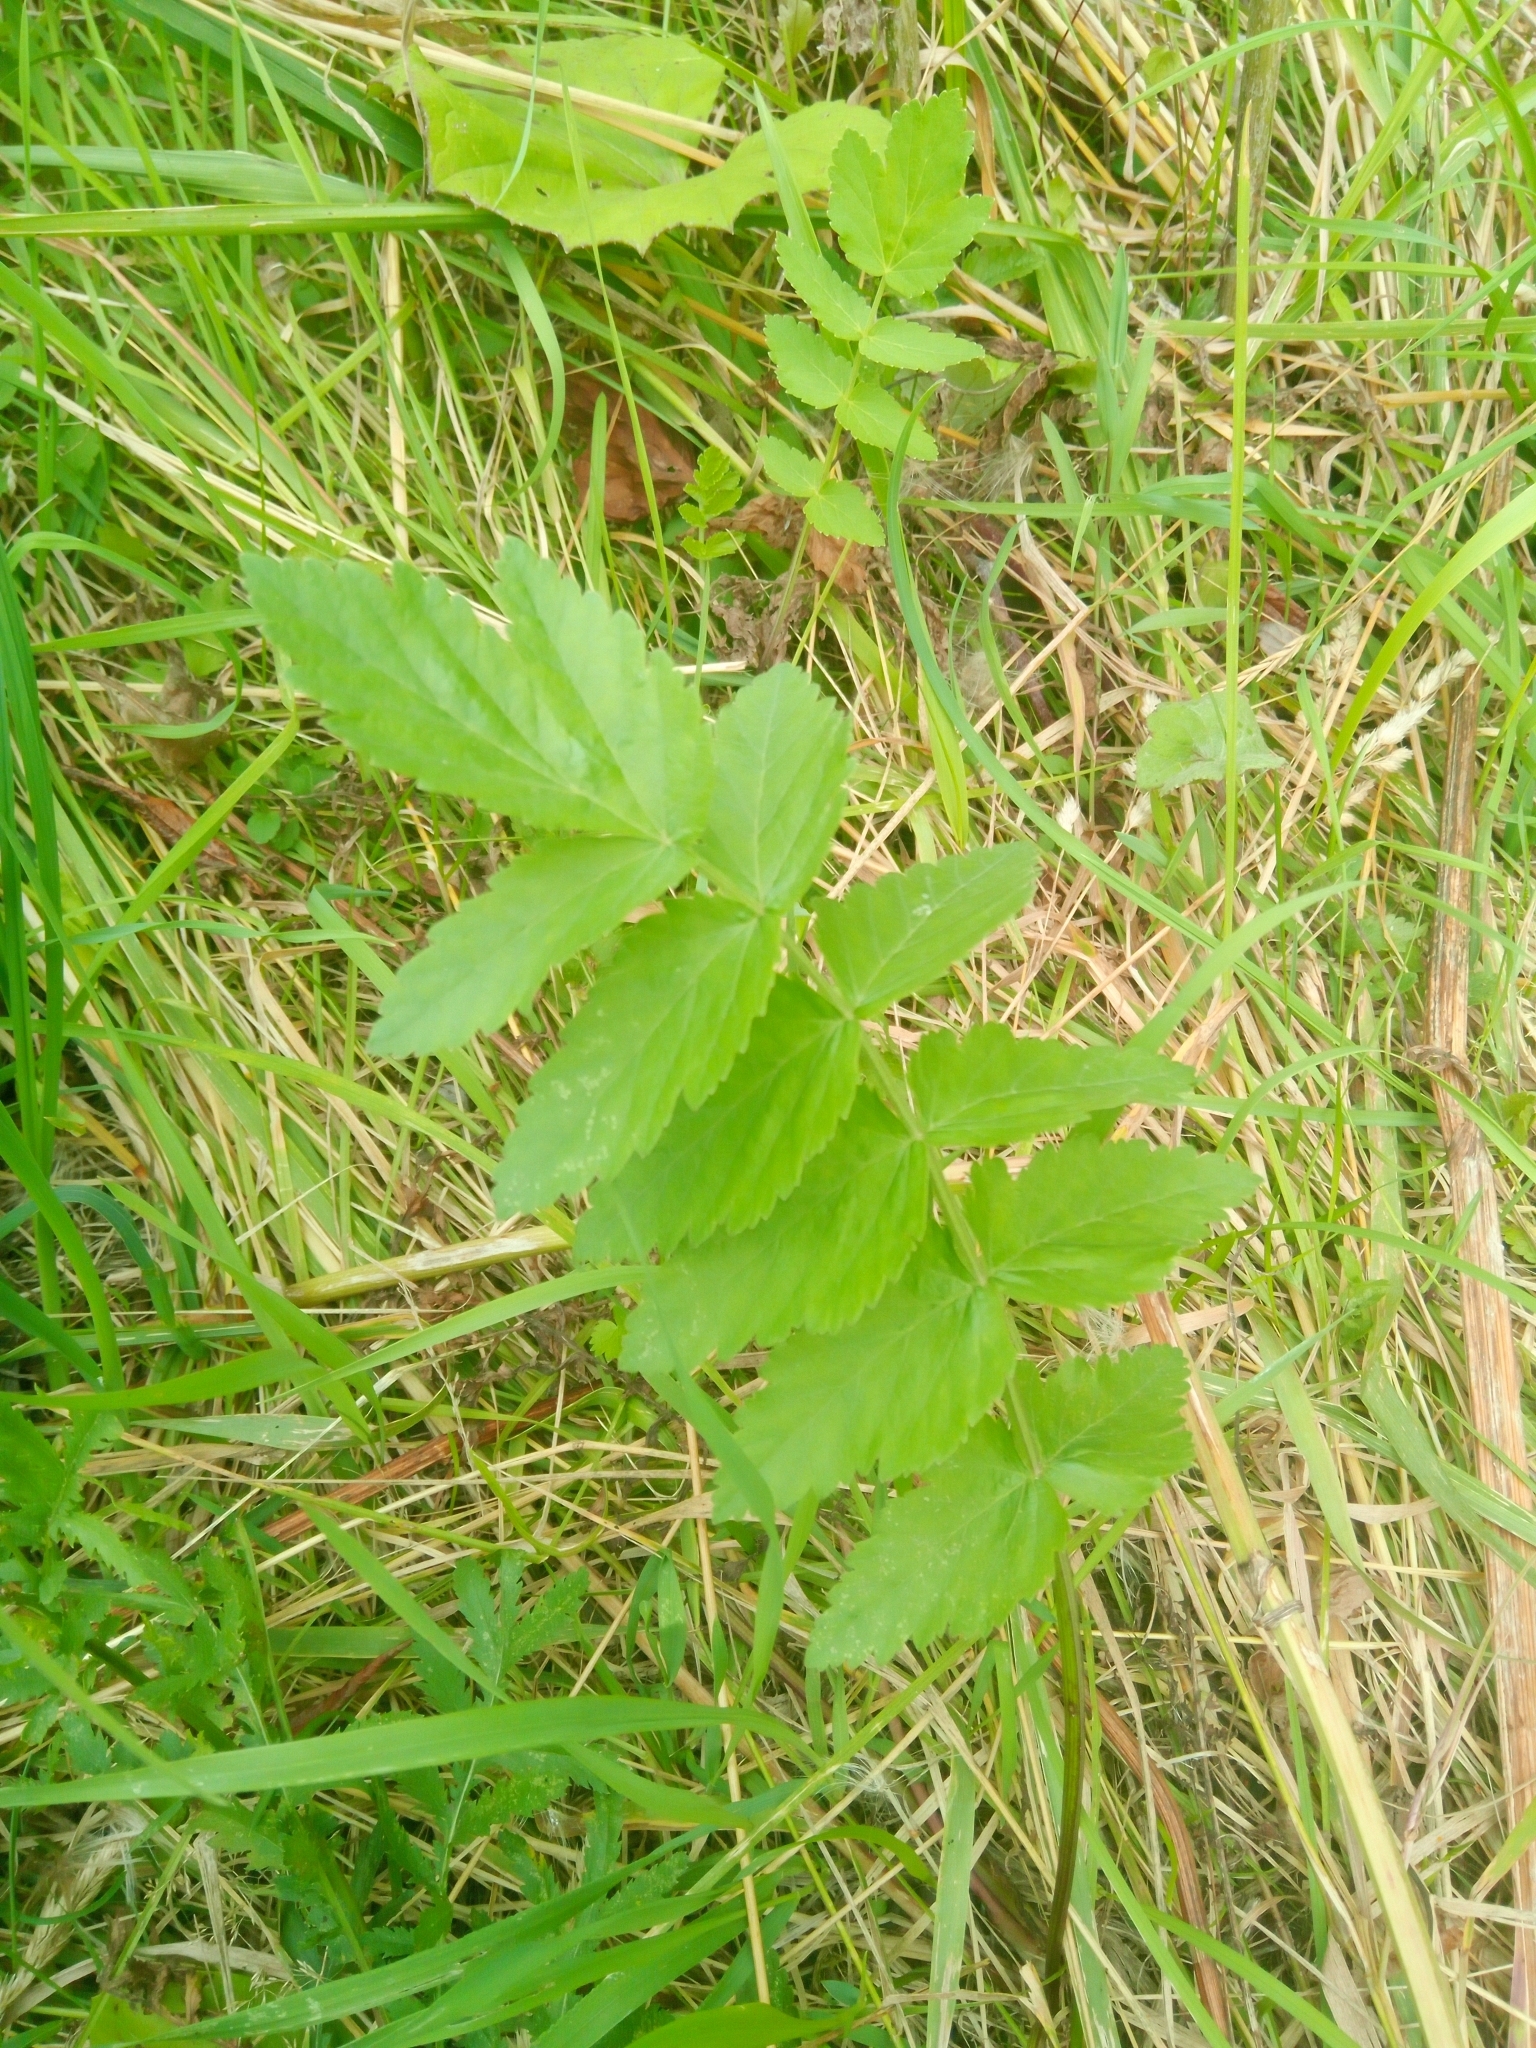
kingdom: Plantae
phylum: Tracheophyta
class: Magnoliopsida
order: Apiales
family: Apiaceae
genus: Pastinaca
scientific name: Pastinaca sativa
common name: Wild parsnip
